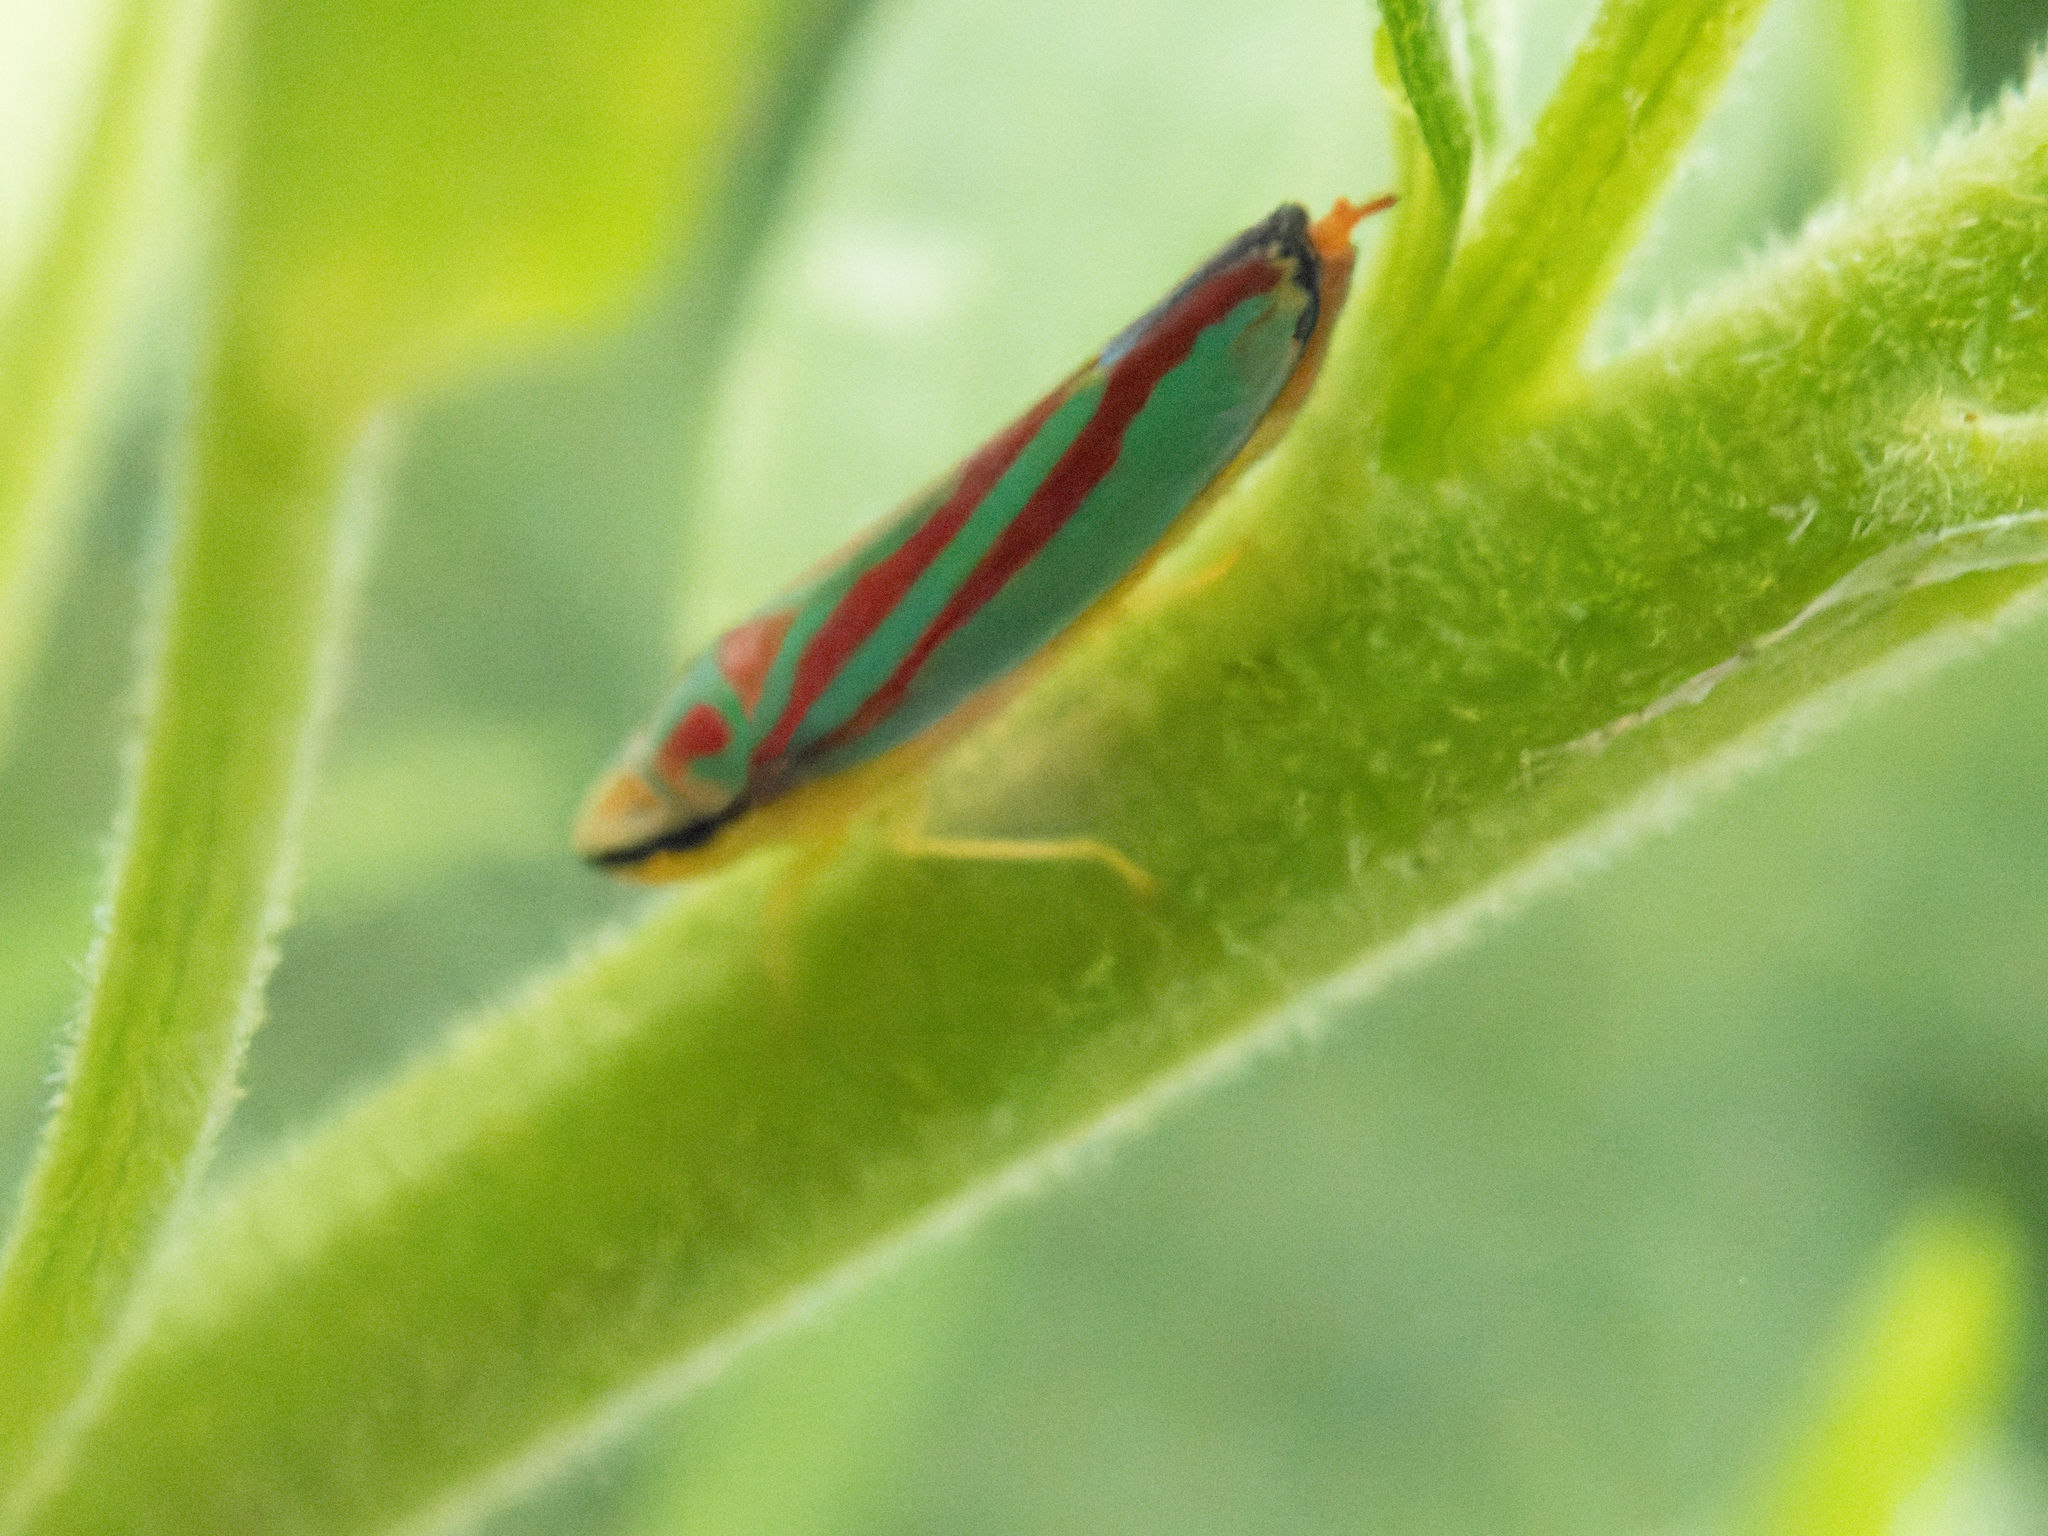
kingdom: Animalia
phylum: Arthropoda
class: Insecta
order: Hemiptera
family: Cicadellidae
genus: Graphocephala
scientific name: Graphocephala coccinea
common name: Candy-striped leafhopper
